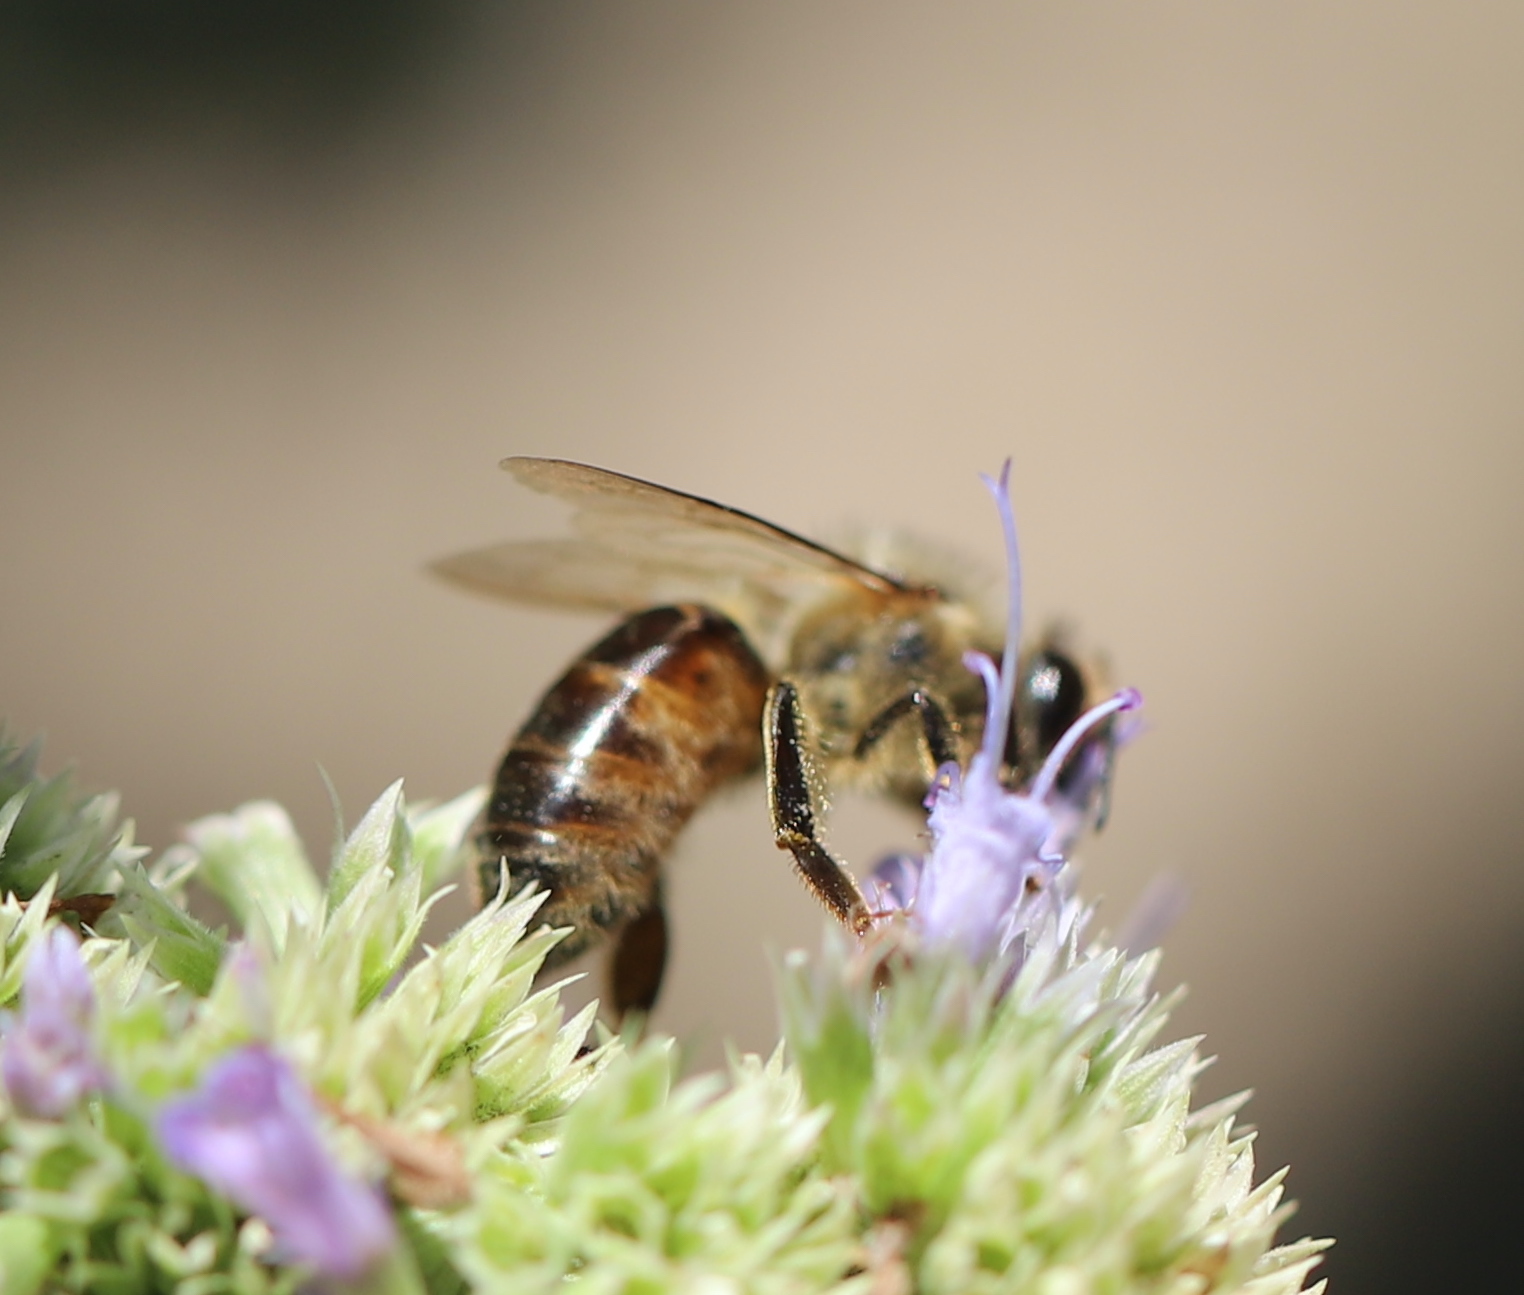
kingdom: Animalia
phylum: Arthropoda
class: Insecta
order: Hymenoptera
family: Apidae
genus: Apis
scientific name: Apis mellifera
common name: Honey bee
